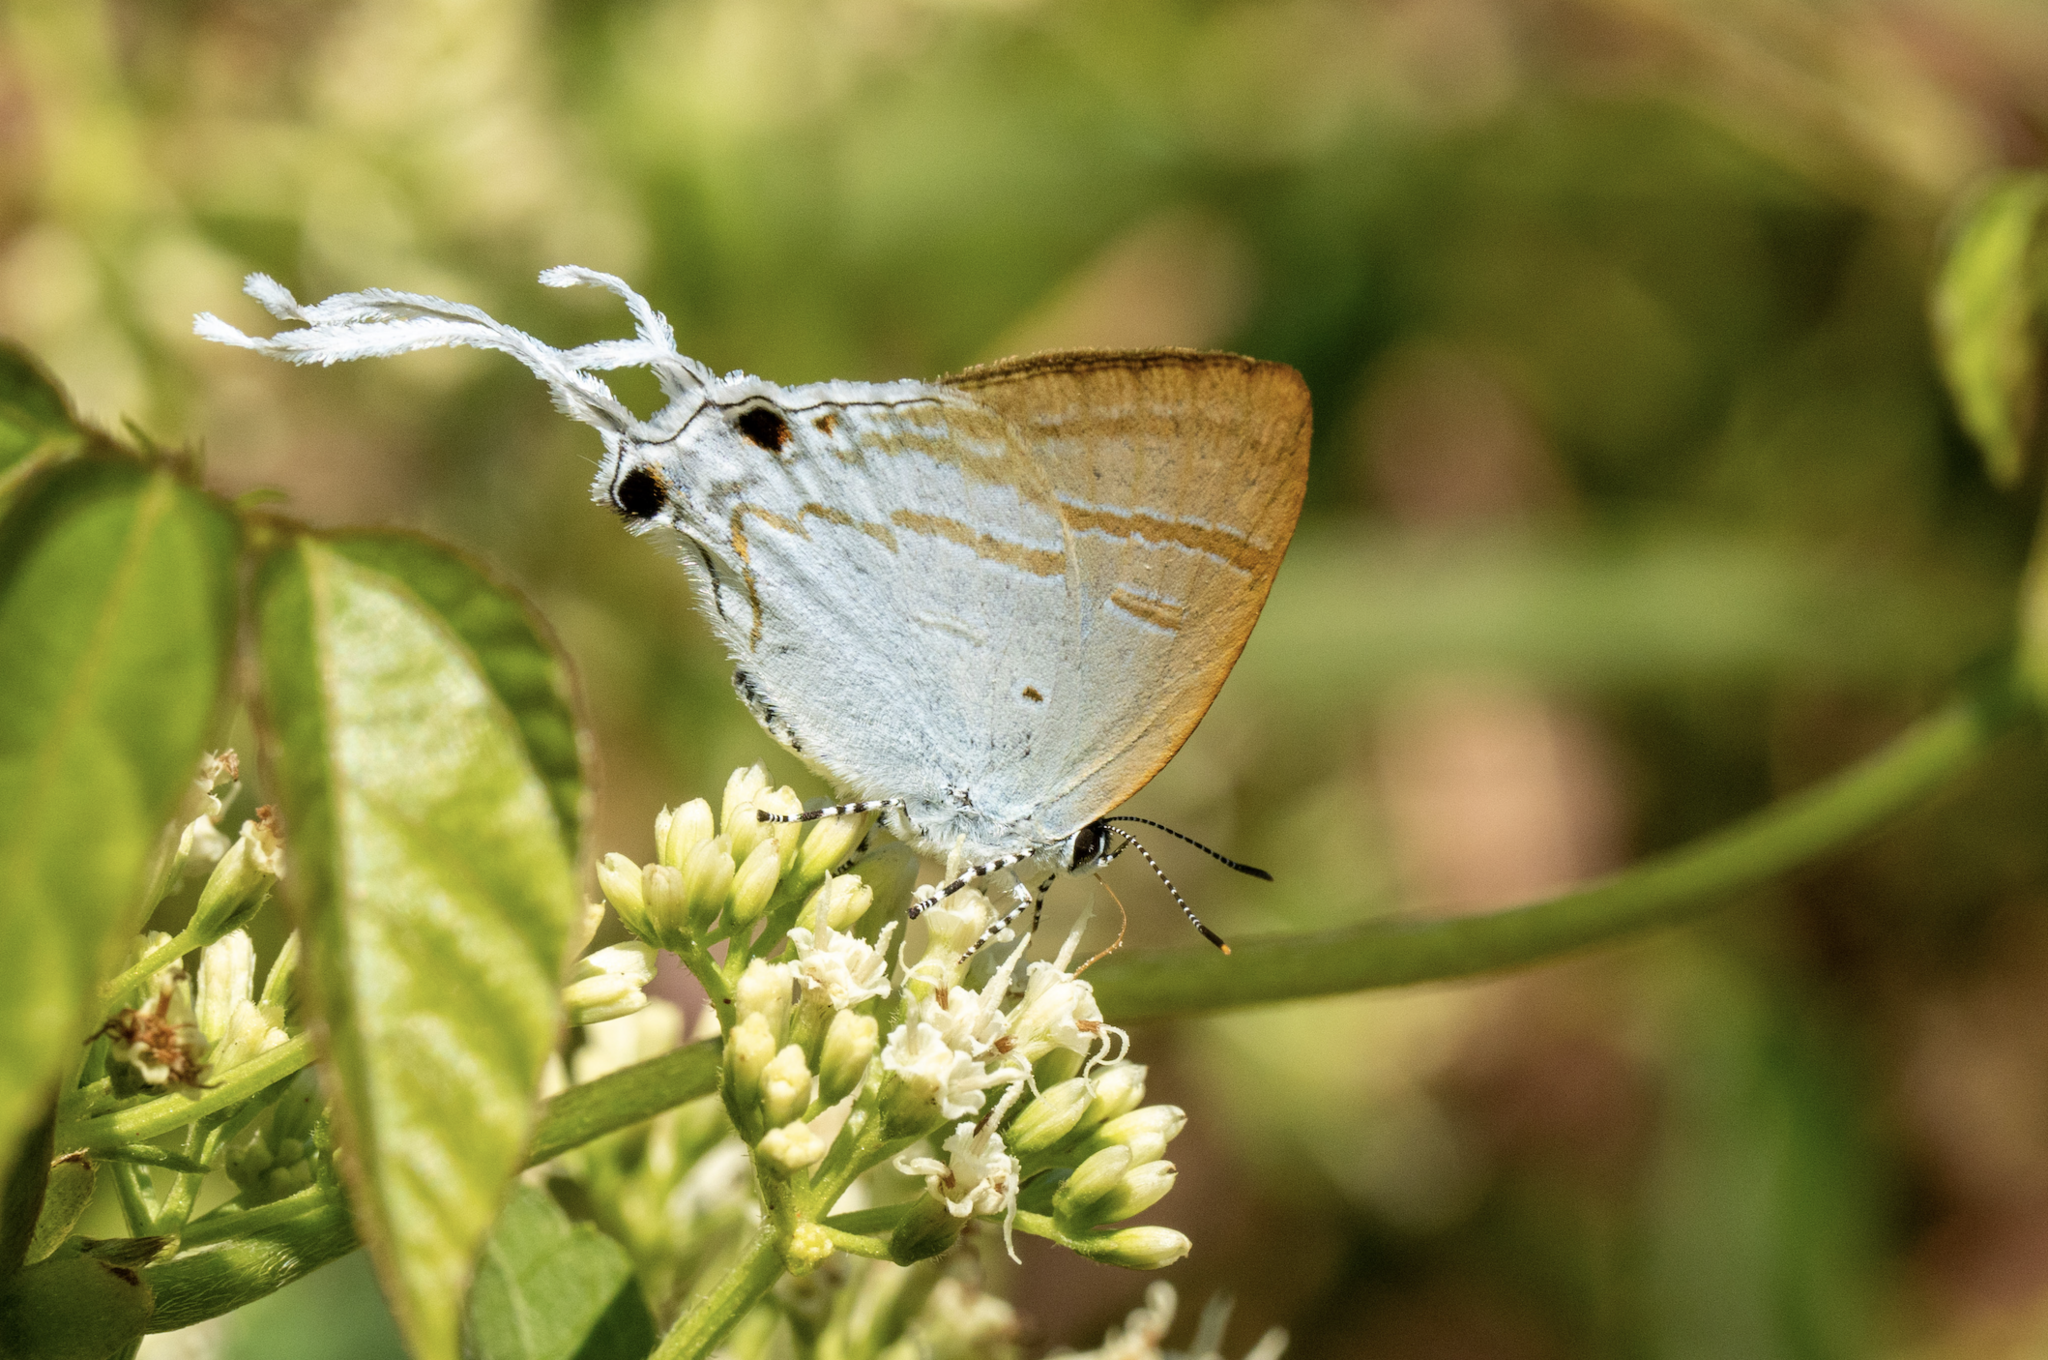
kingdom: Animalia
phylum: Arthropoda
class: Insecta
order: Lepidoptera
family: Lycaenidae
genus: Zeltus
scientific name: Zeltus amasa
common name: Fluffy tit
